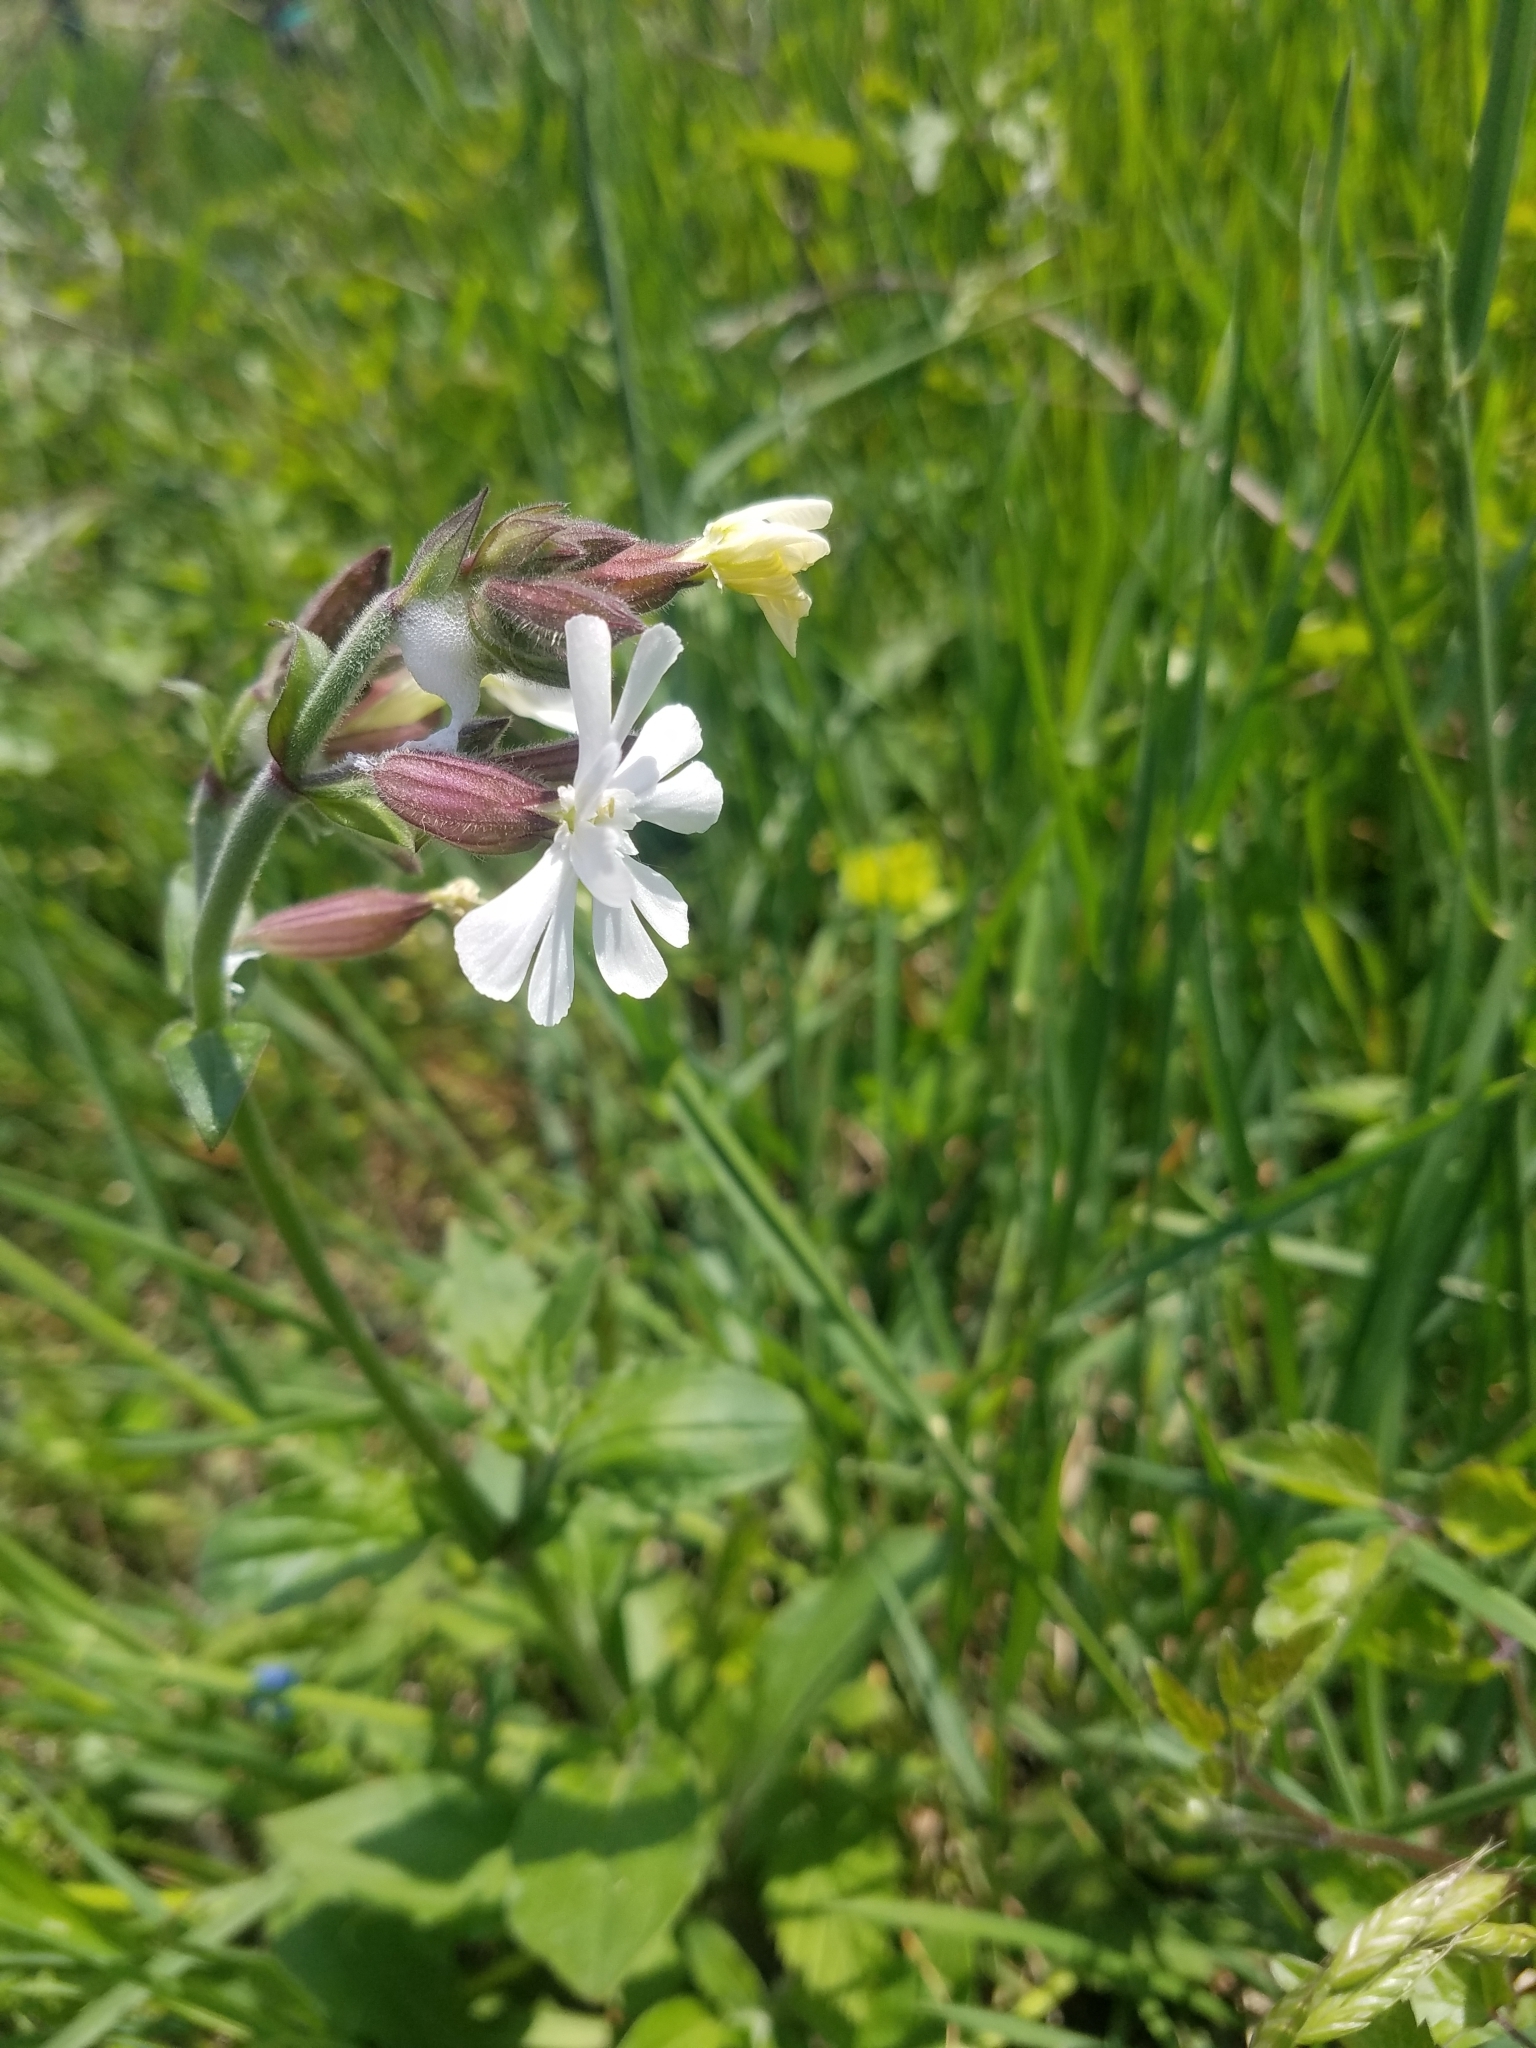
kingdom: Plantae
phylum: Tracheophyta
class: Magnoliopsida
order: Caryophyllales
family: Caryophyllaceae
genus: Silene
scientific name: Silene latifolia
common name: White campion
